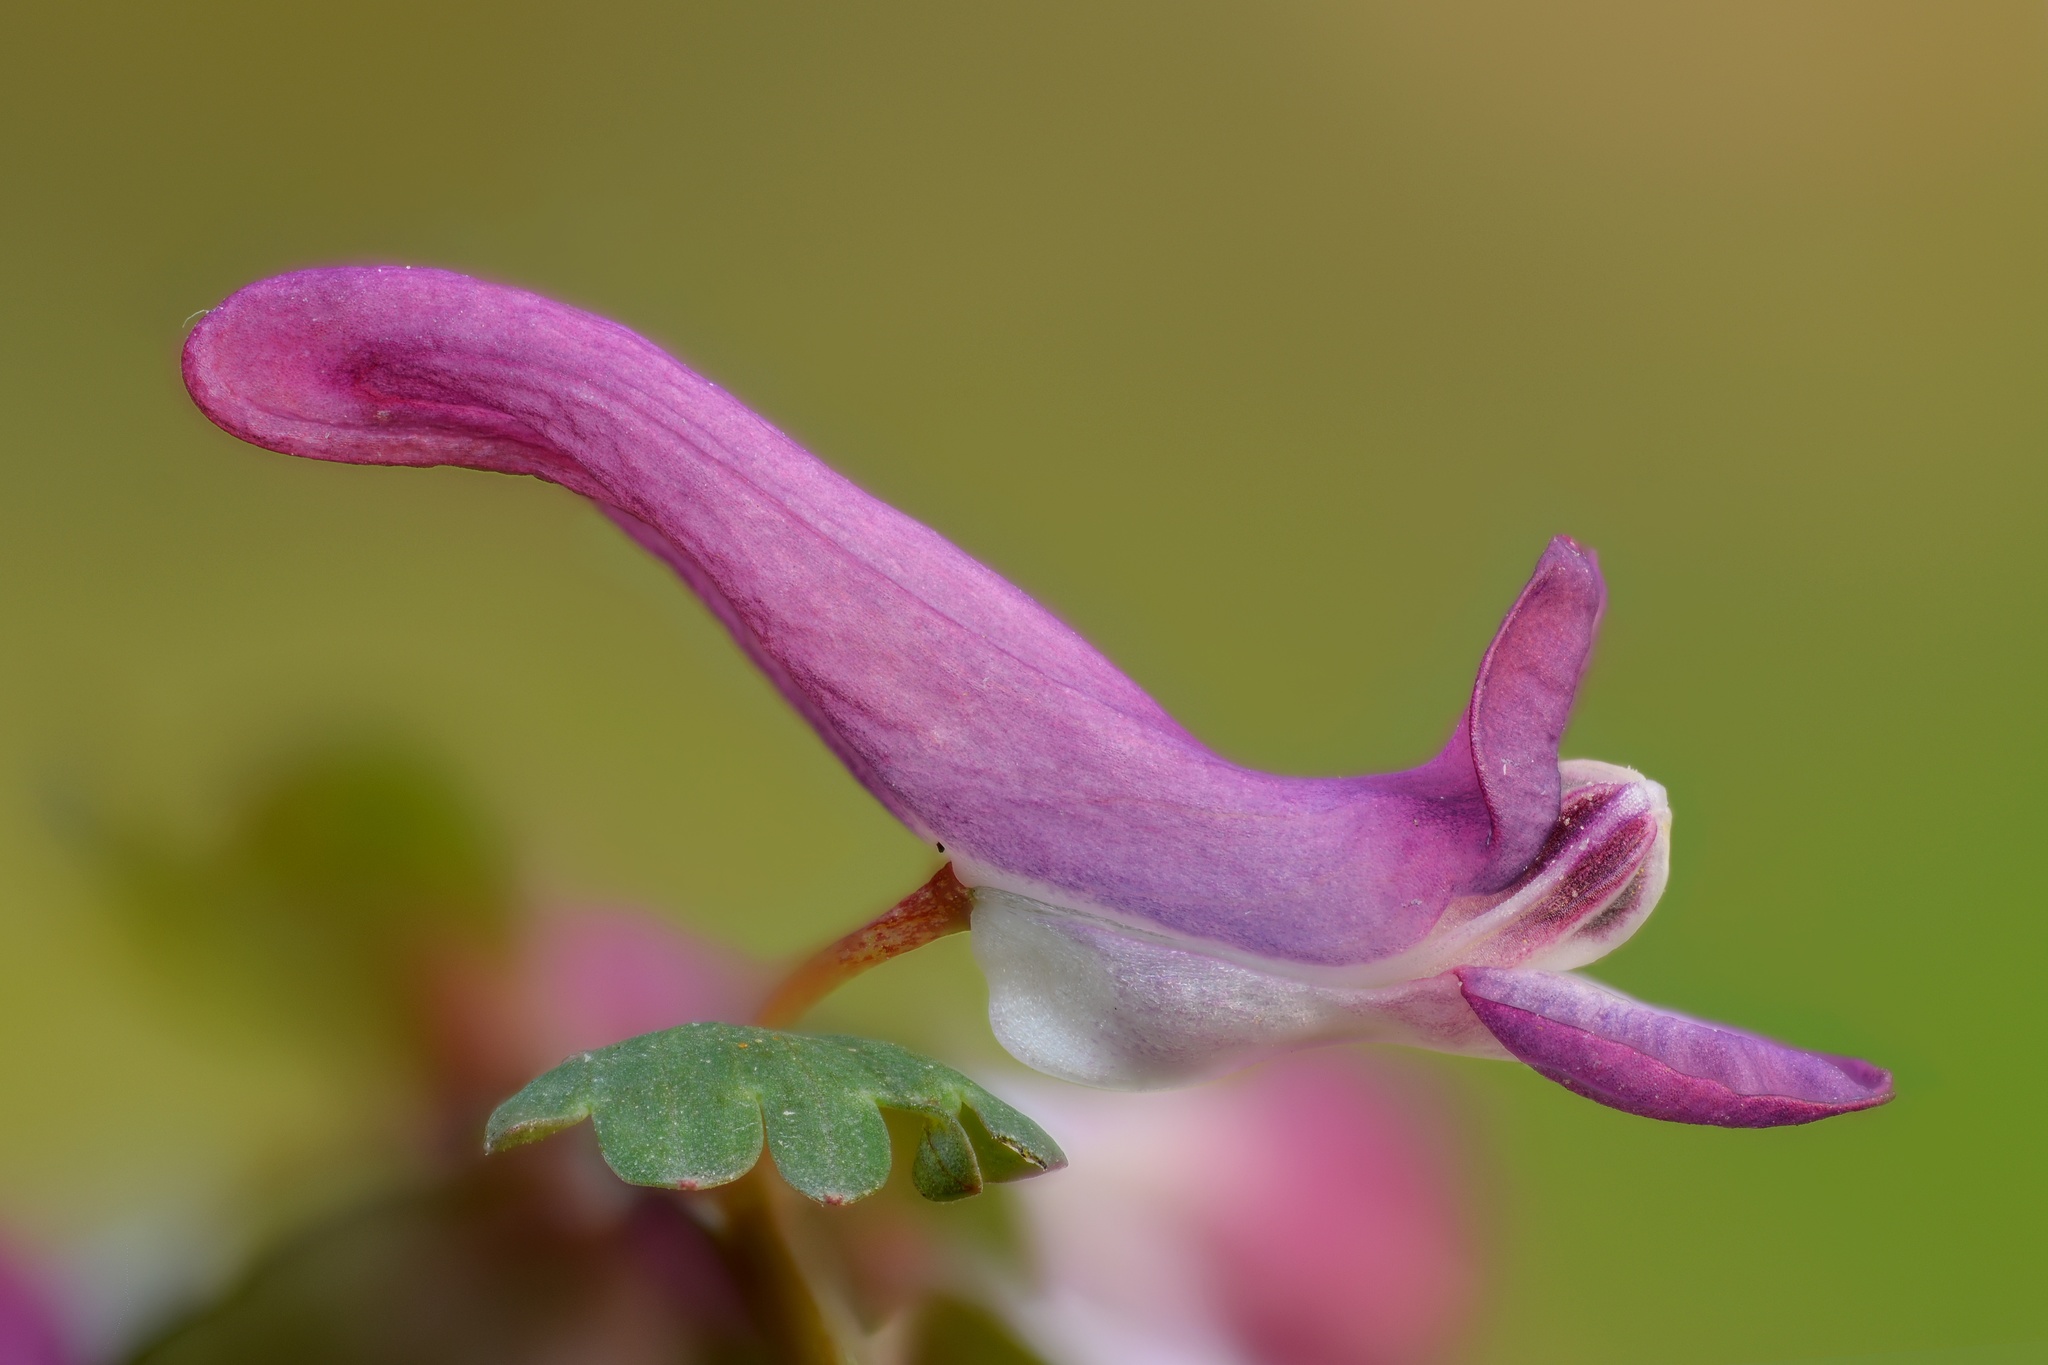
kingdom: Plantae
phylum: Tracheophyta
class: Magnoliopsida
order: Ranunculales
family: Papaveraceae
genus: Corydalis
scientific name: Corydalis solida
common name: Bird-in-a-bush
